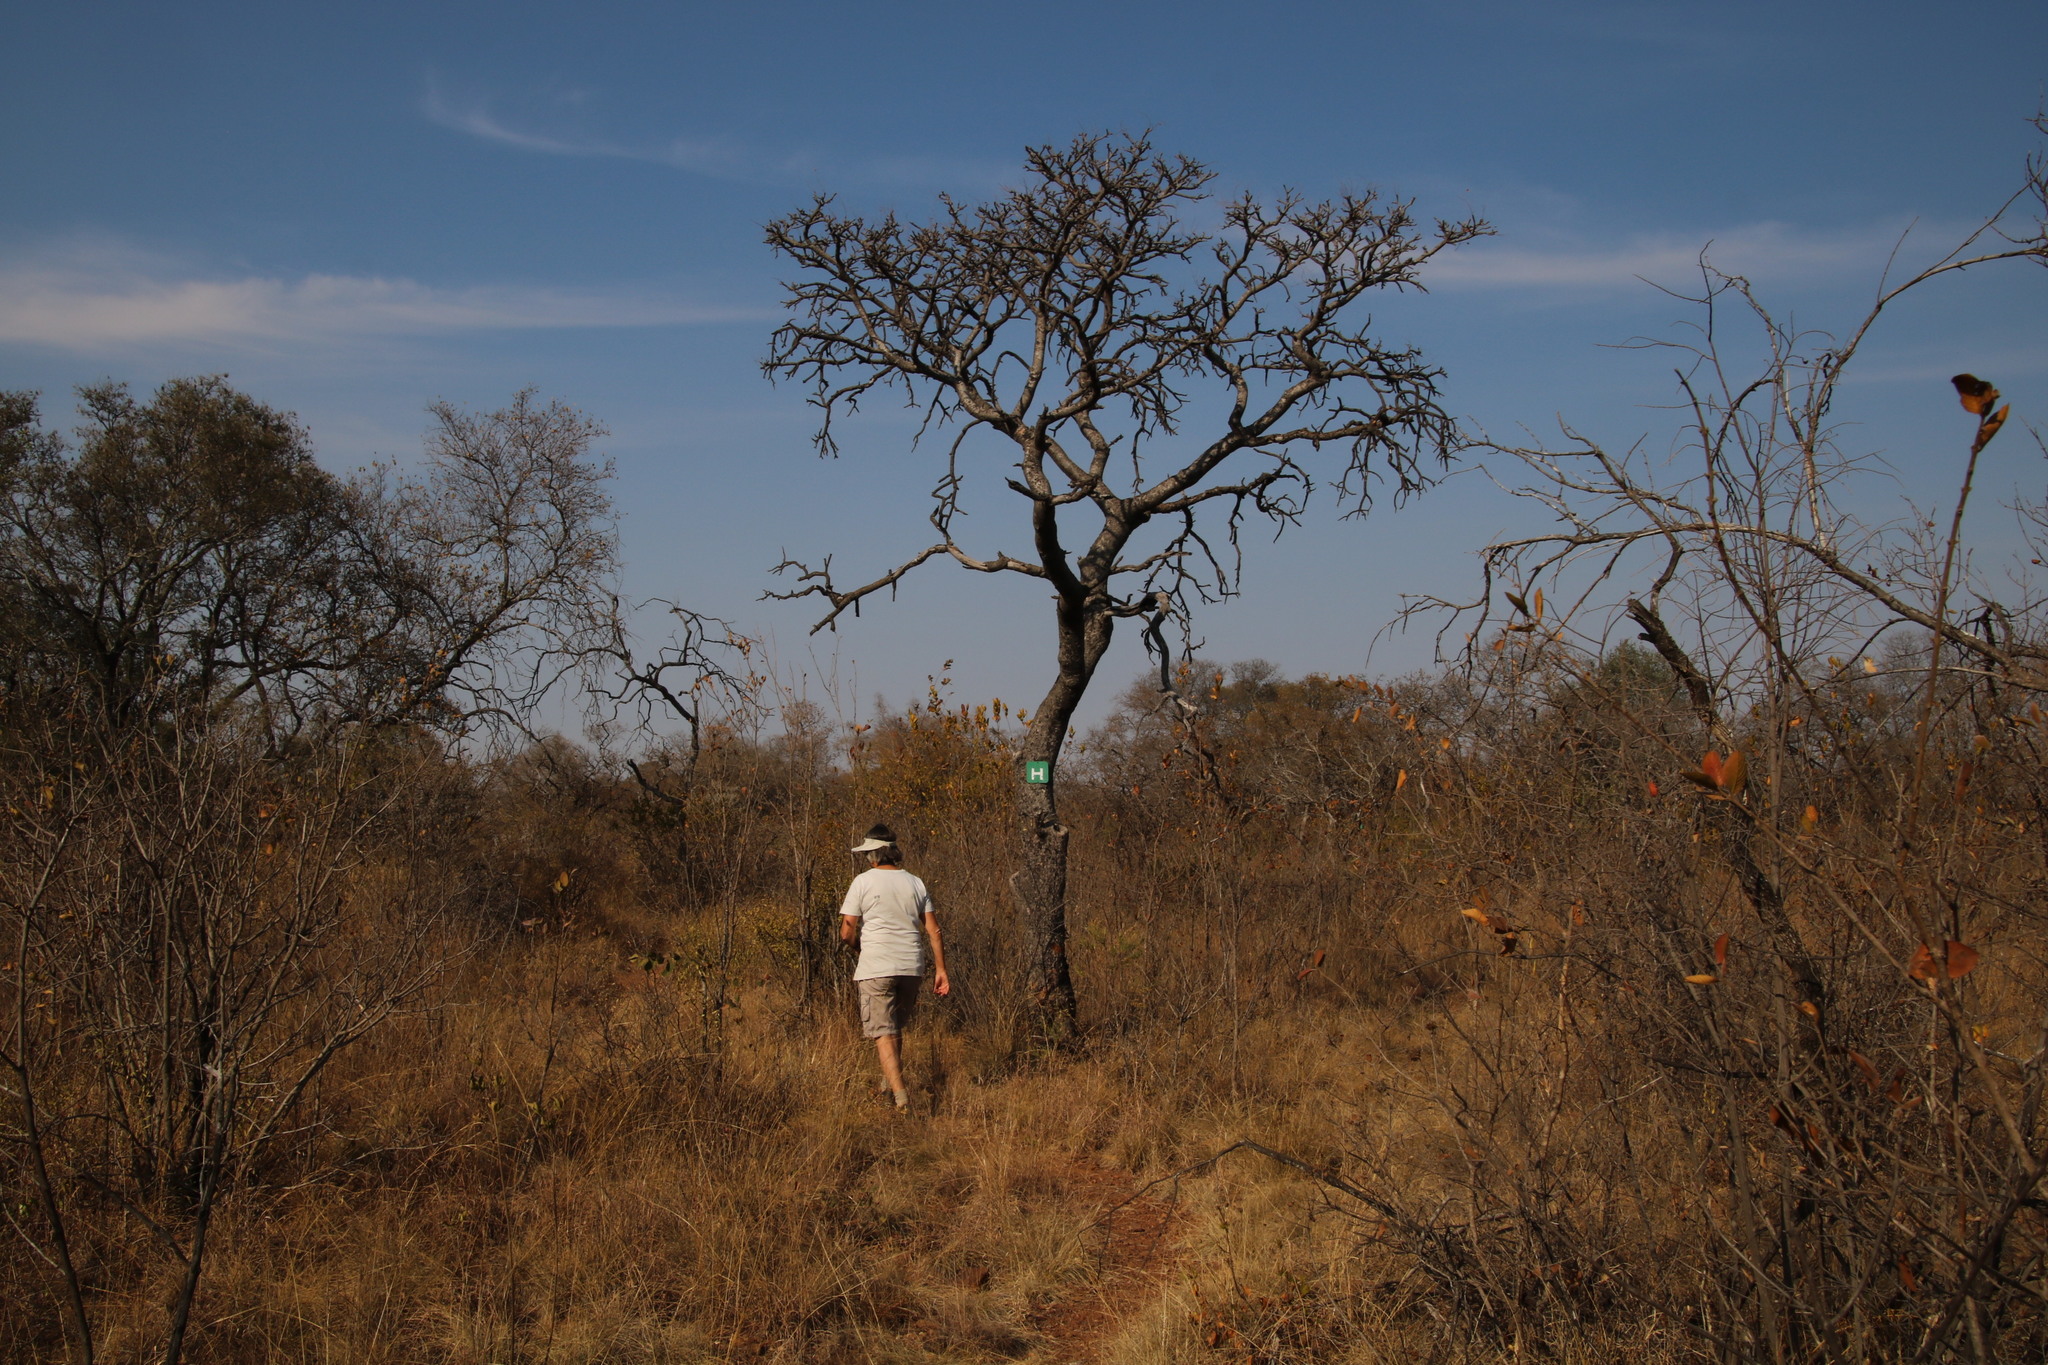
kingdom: Plantae
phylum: Tracheophyta
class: Magnoliopsida
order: Fabales
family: Fabaceae
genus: Burkea
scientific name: Burkea africana
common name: Mkalati tree
